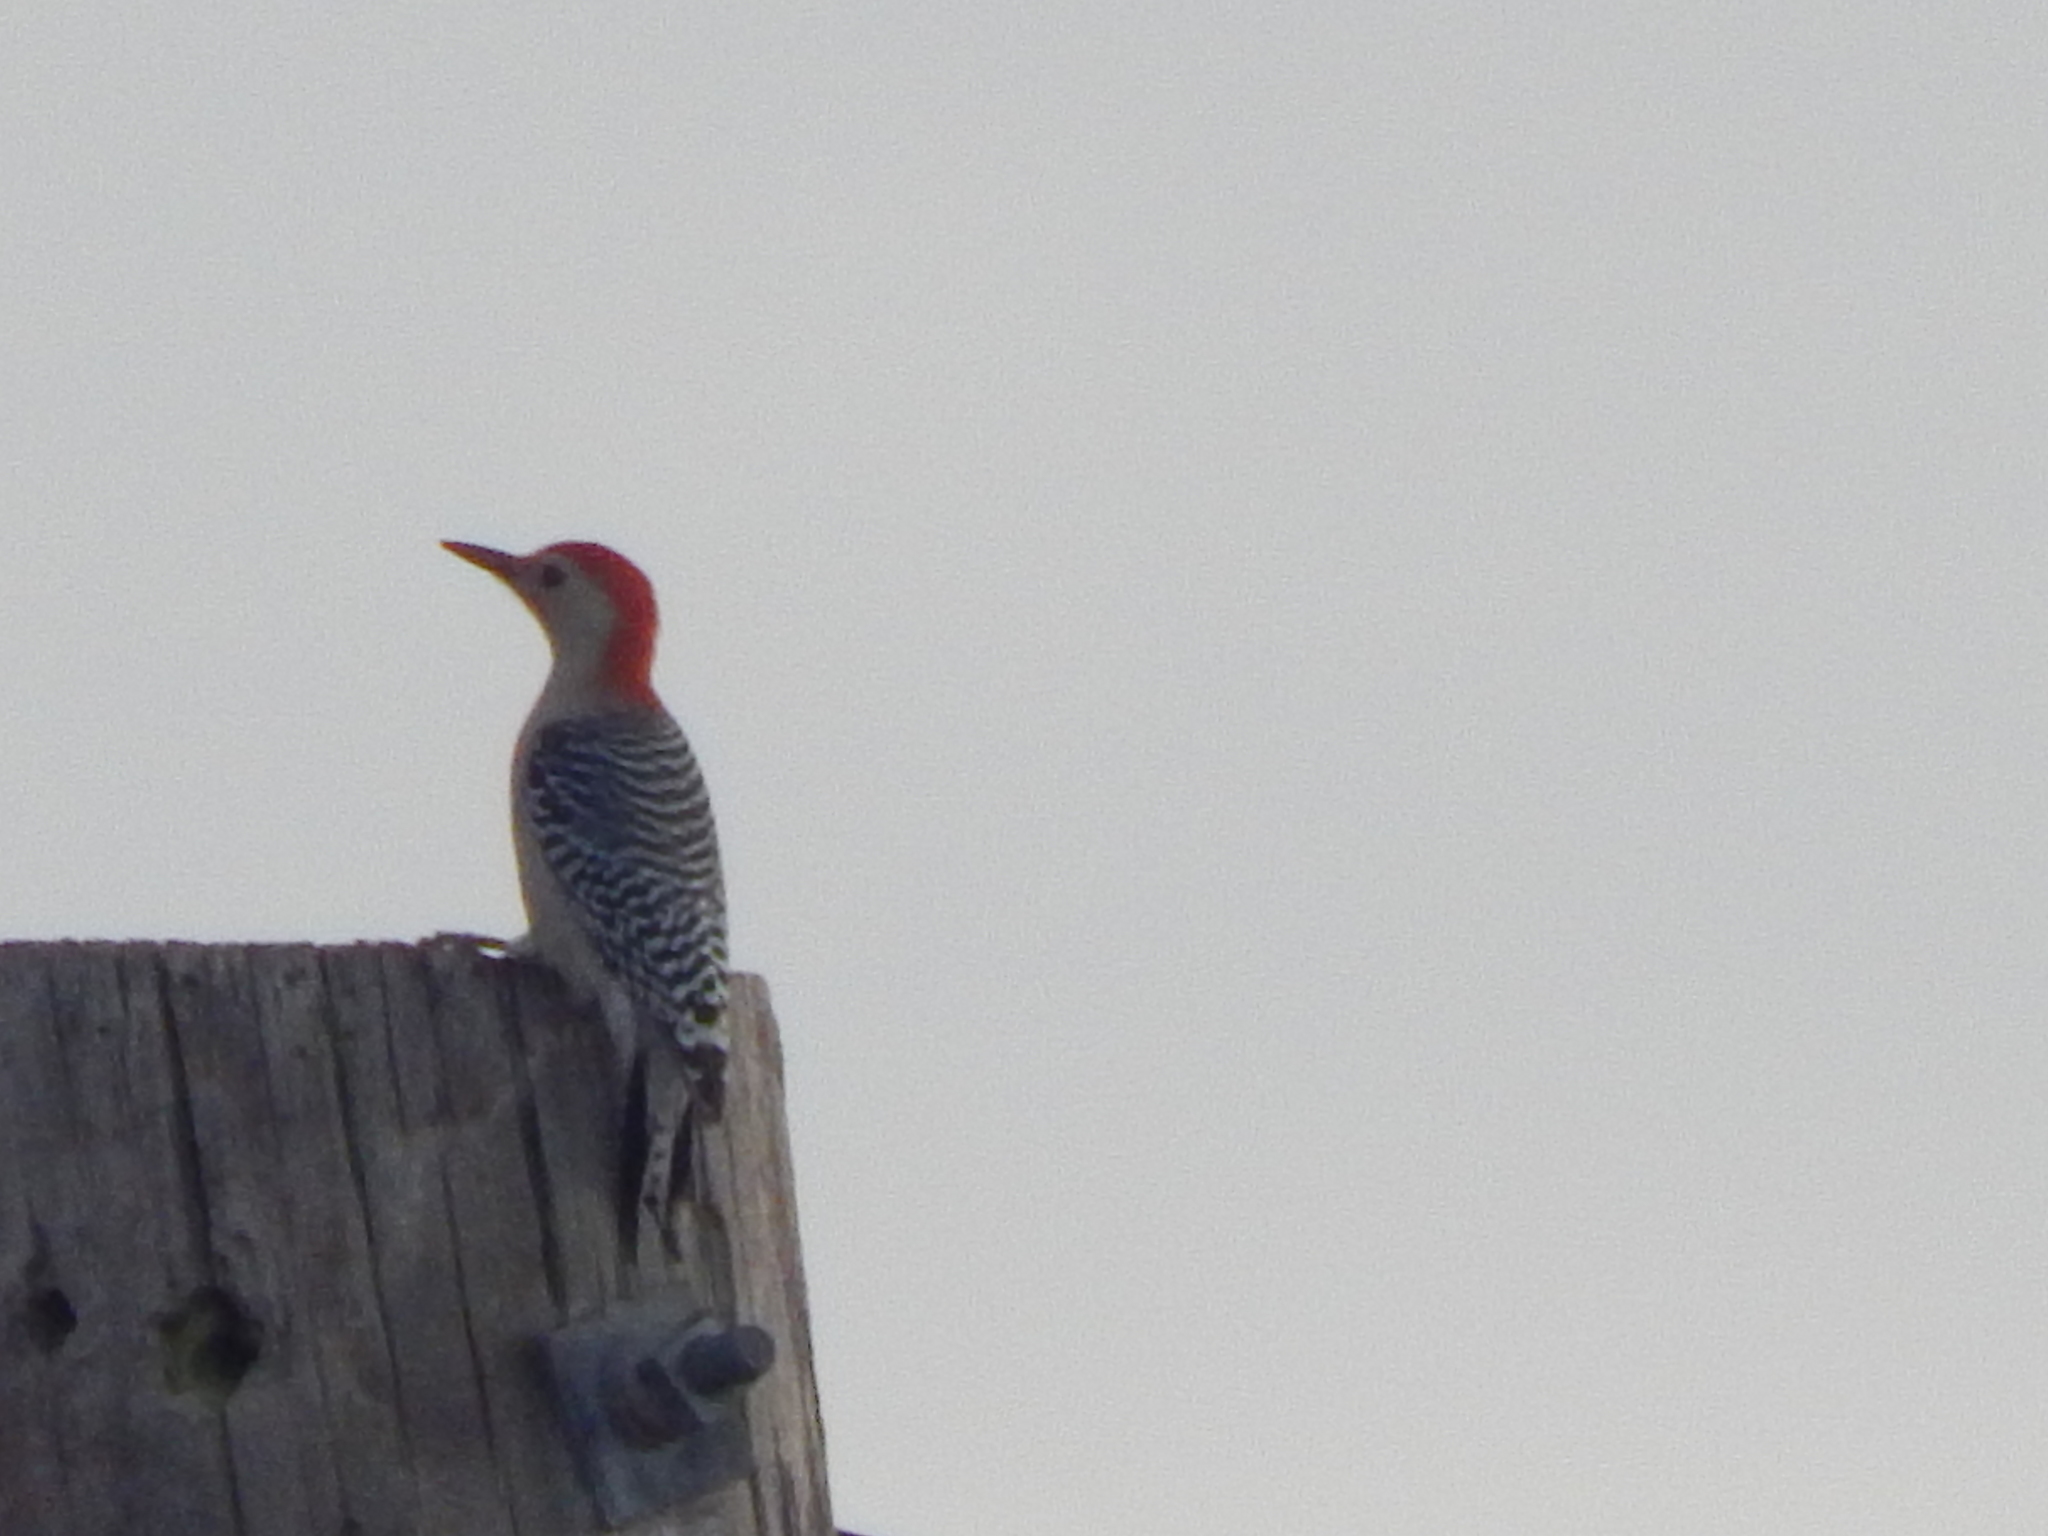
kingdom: Animalia
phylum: Chordata
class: Aves
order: Piciformes
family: Picidae
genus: Melanerpes
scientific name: Melanerpes carolinus
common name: Red-bellied woodpecker
